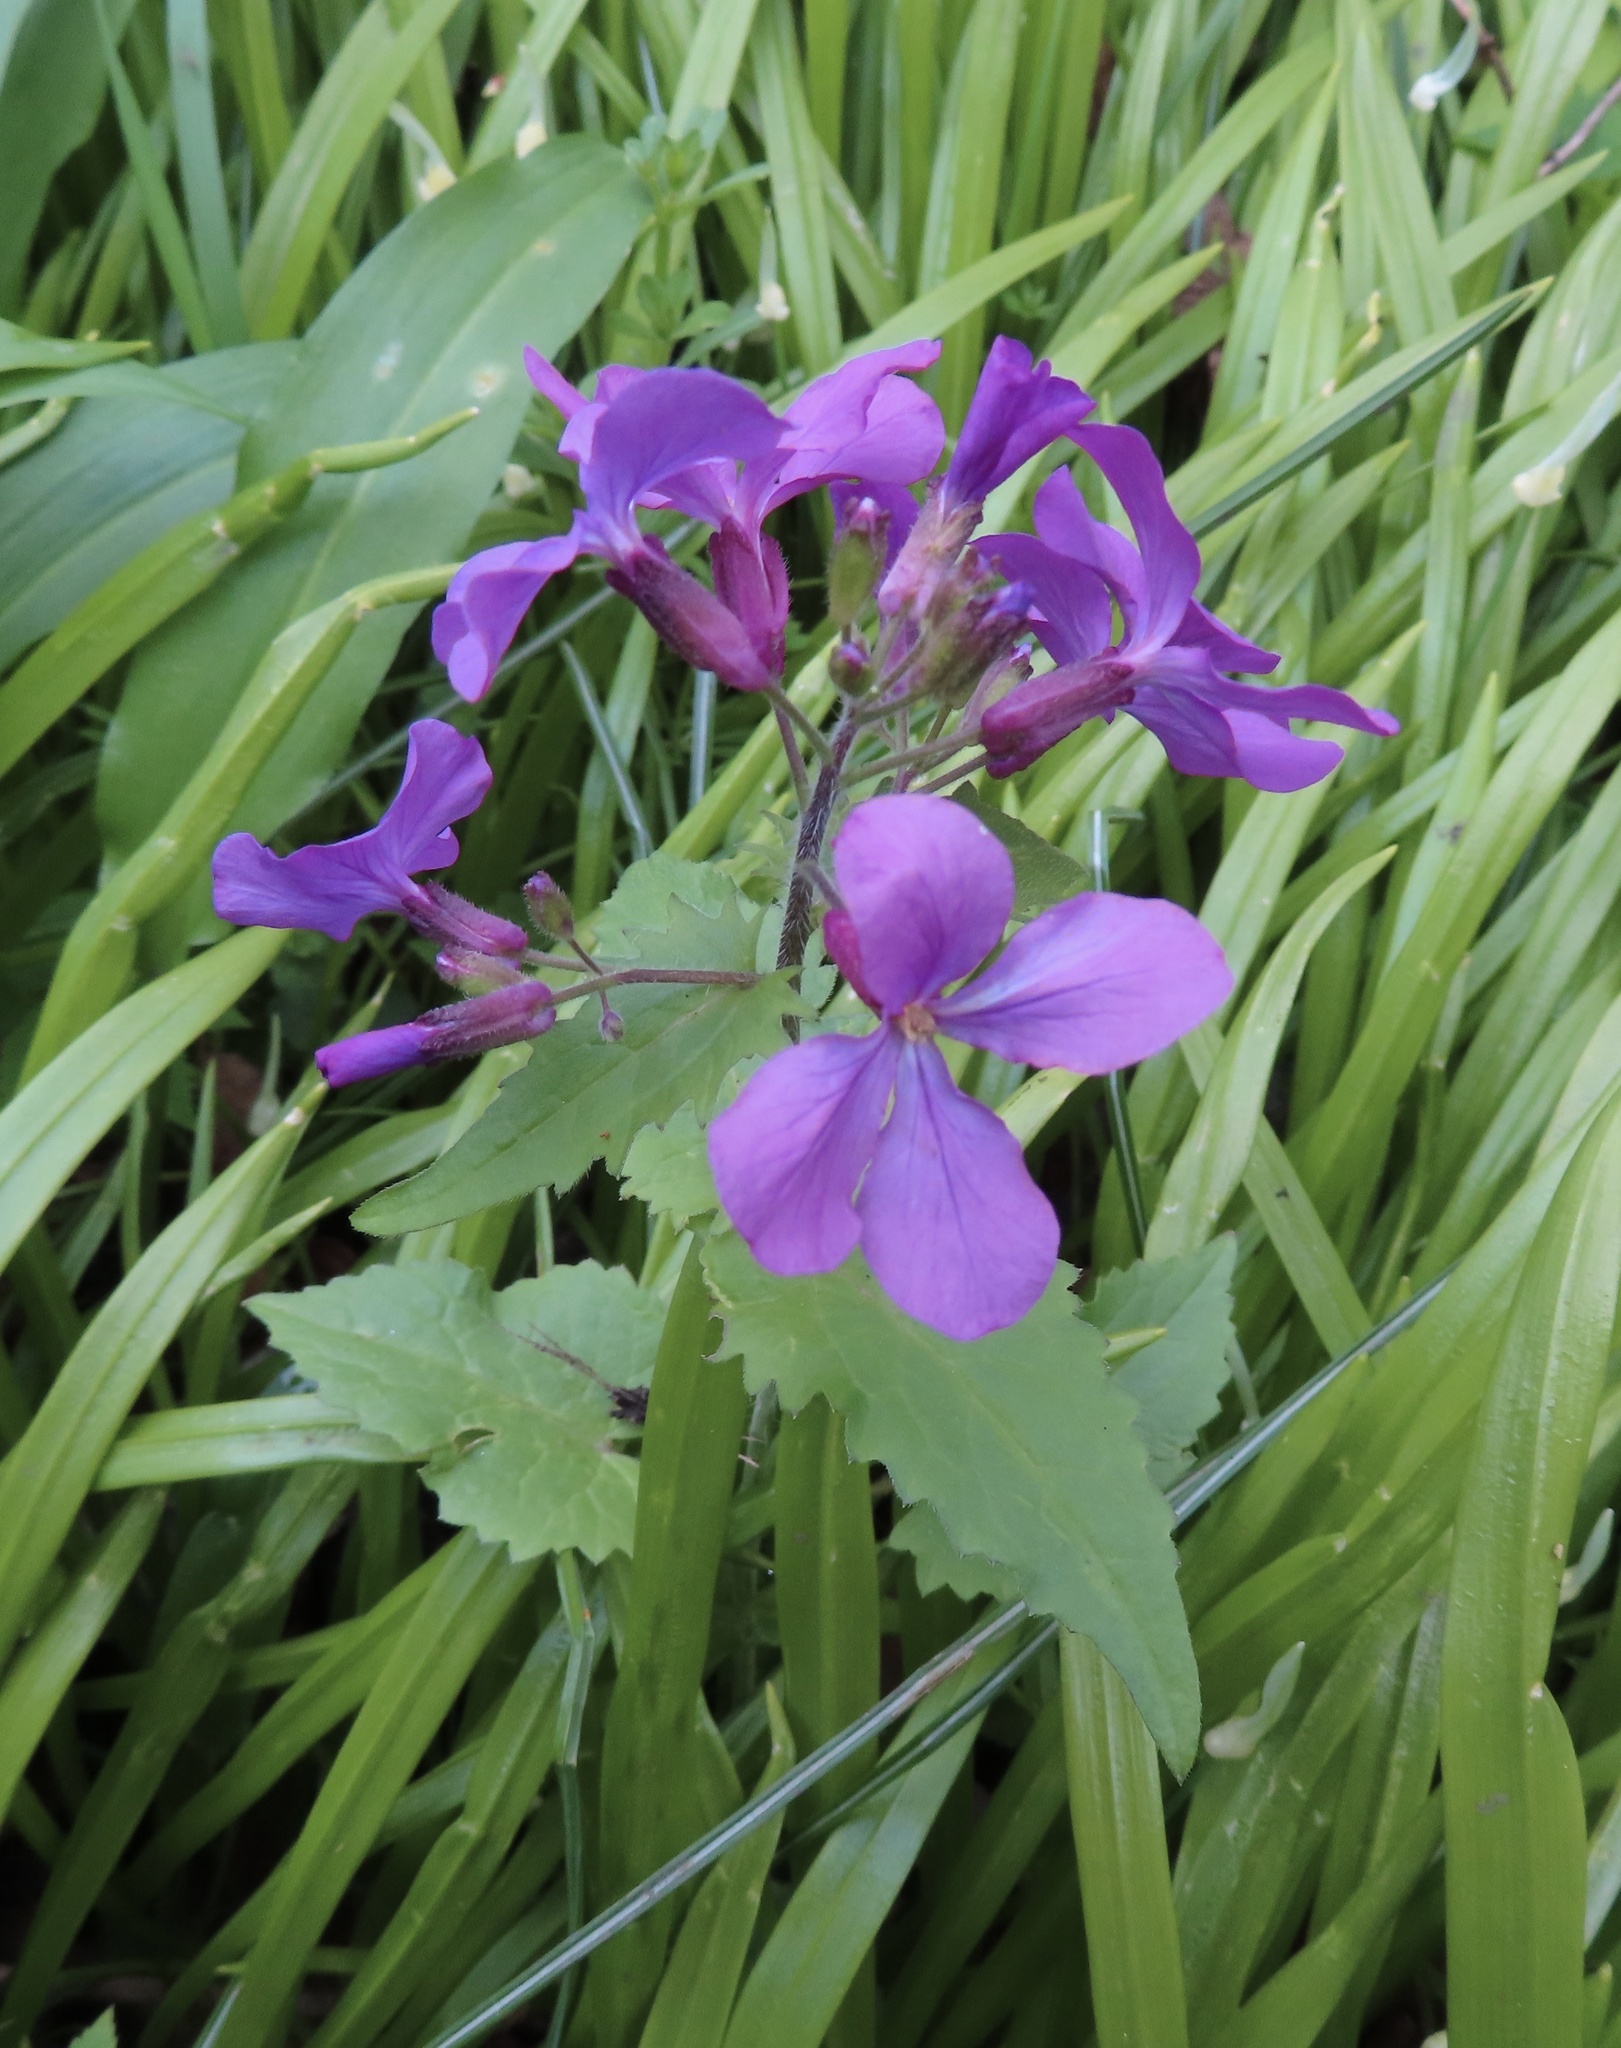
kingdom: Plantae
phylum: Tracheophyta
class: Magnoliopsida
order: Brassicales
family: Brassicaceae
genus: Lunaria
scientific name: Lunaria annua
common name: Honesty
